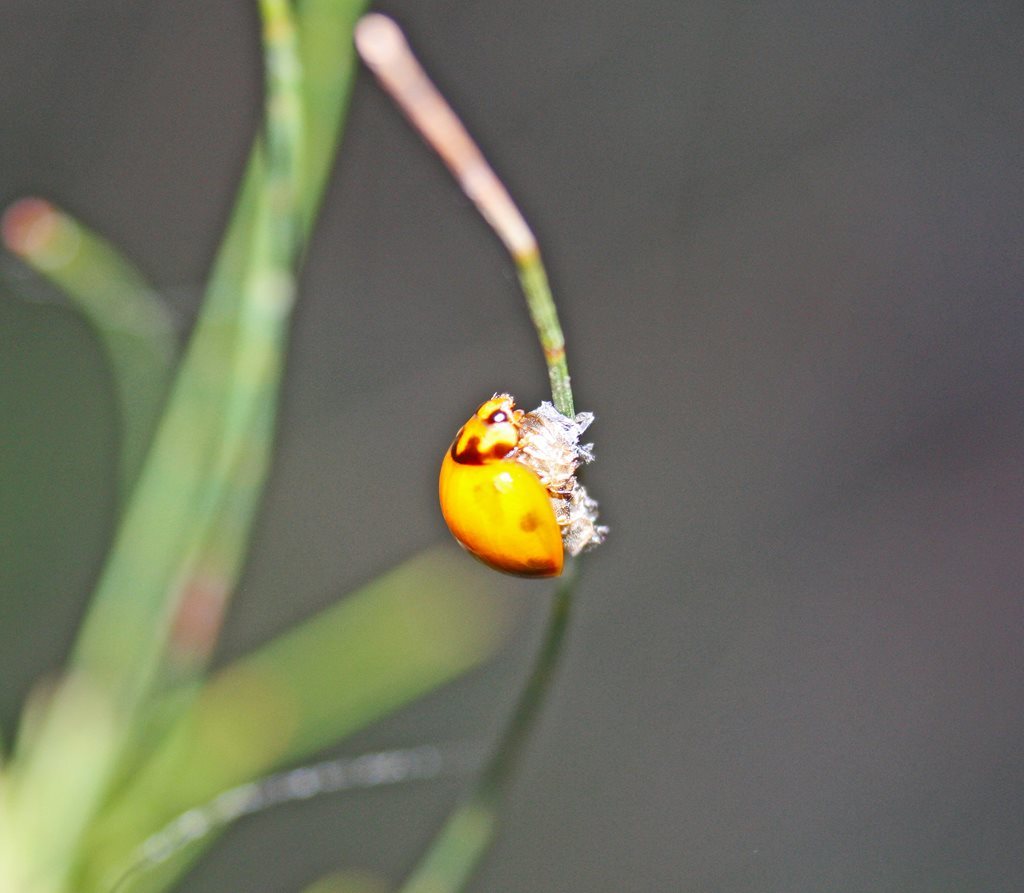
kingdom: Animalia
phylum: Arthropoda
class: Insecta
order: Coleoptera
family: Coccinellidae
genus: Coelophora
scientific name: Coelophora inaequalis
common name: Common australian lady beetle
